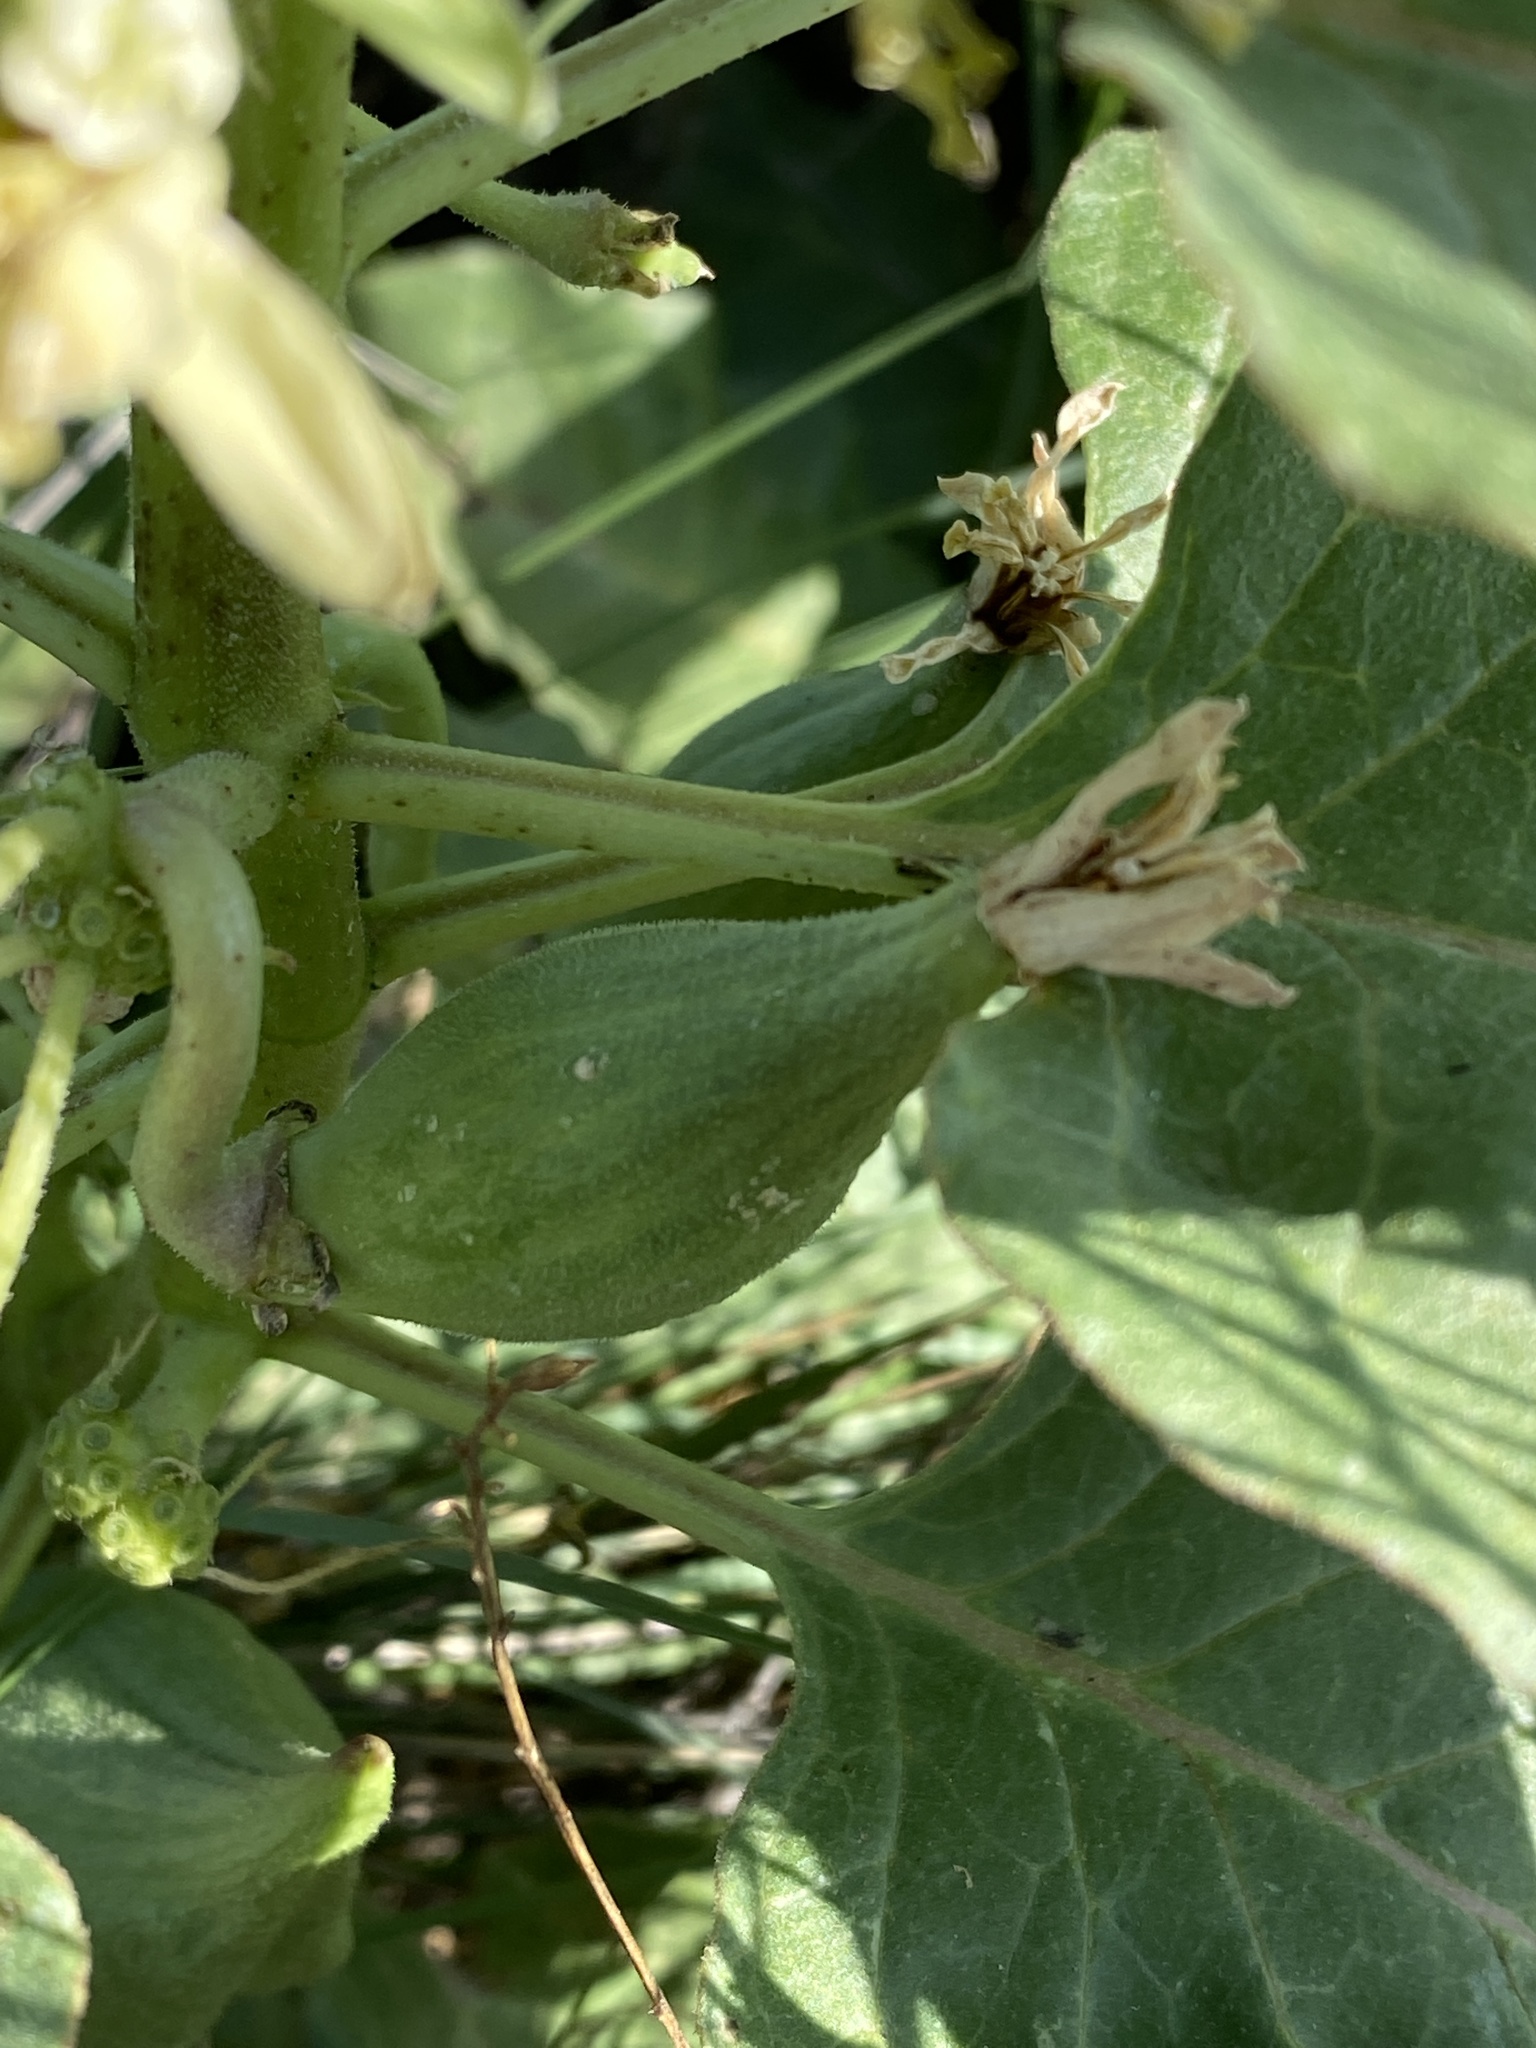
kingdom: Plantae
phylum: Tracheophyta
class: Magnoliopsida
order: Gentianales
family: Apocynaceae
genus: Asclepias
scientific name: Asclepias oenotheroides
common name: Zizotes milkweed
